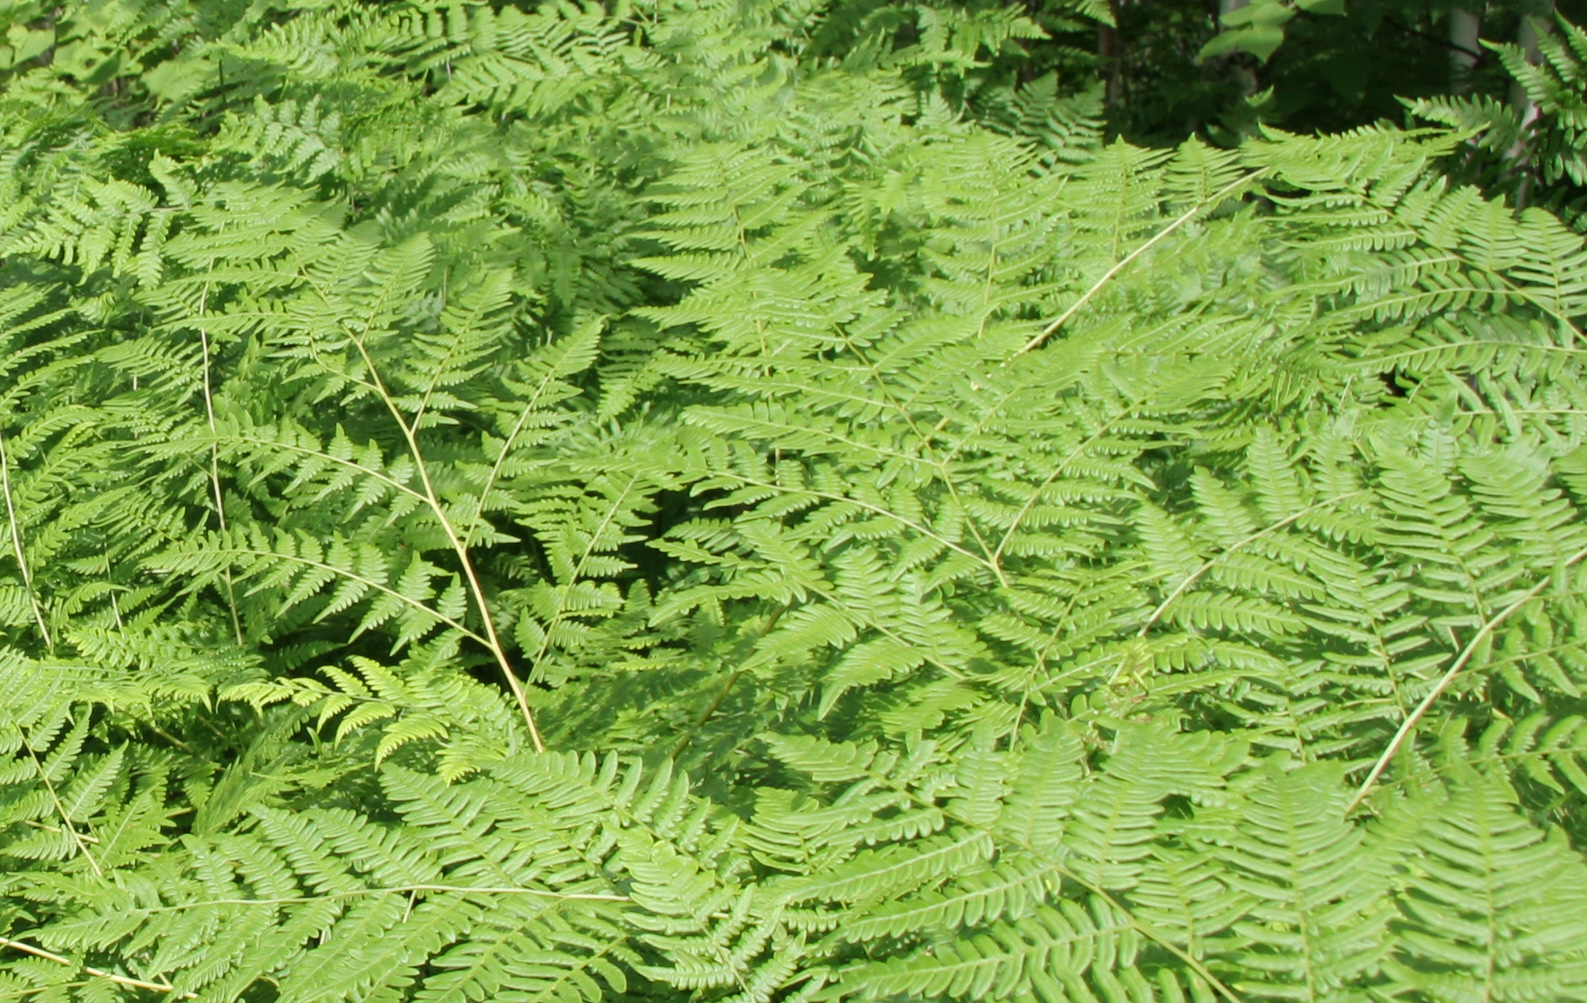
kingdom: Plantae
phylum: Tracheophyta
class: Polypodiopsida
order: Polypodiales
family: Dennstaedtiaceae
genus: Pteridium
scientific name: Pteridium aquilinum
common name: Bracken
